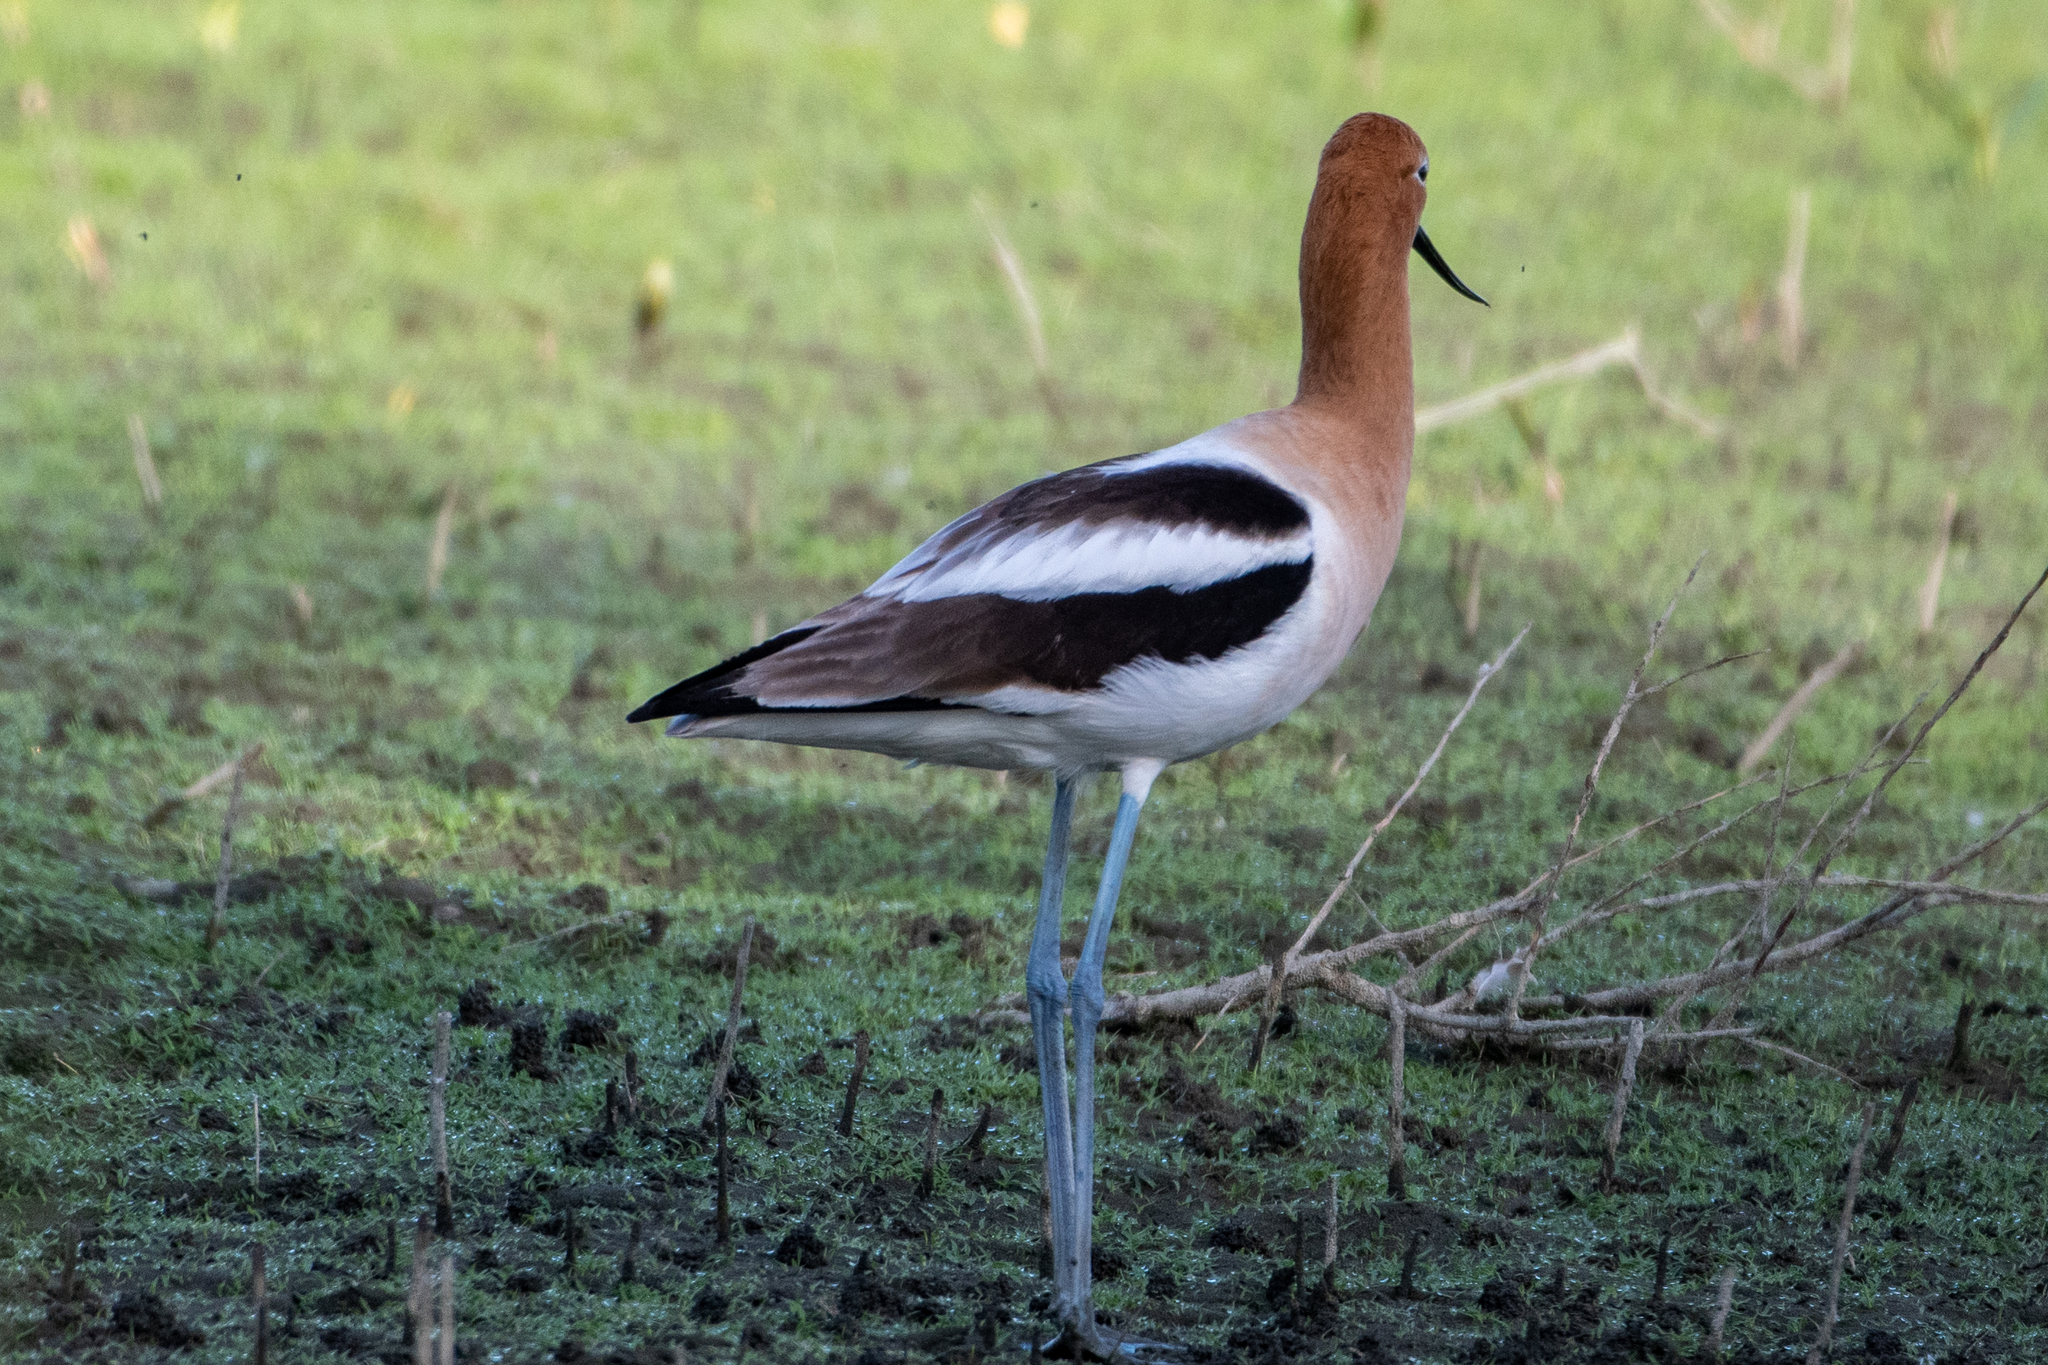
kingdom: Animalia
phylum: Chordata
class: Aves
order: Charadriiformes
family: Recurvirostridae
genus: Recurvirostra
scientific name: Recurvirostra americana
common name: American avocet
